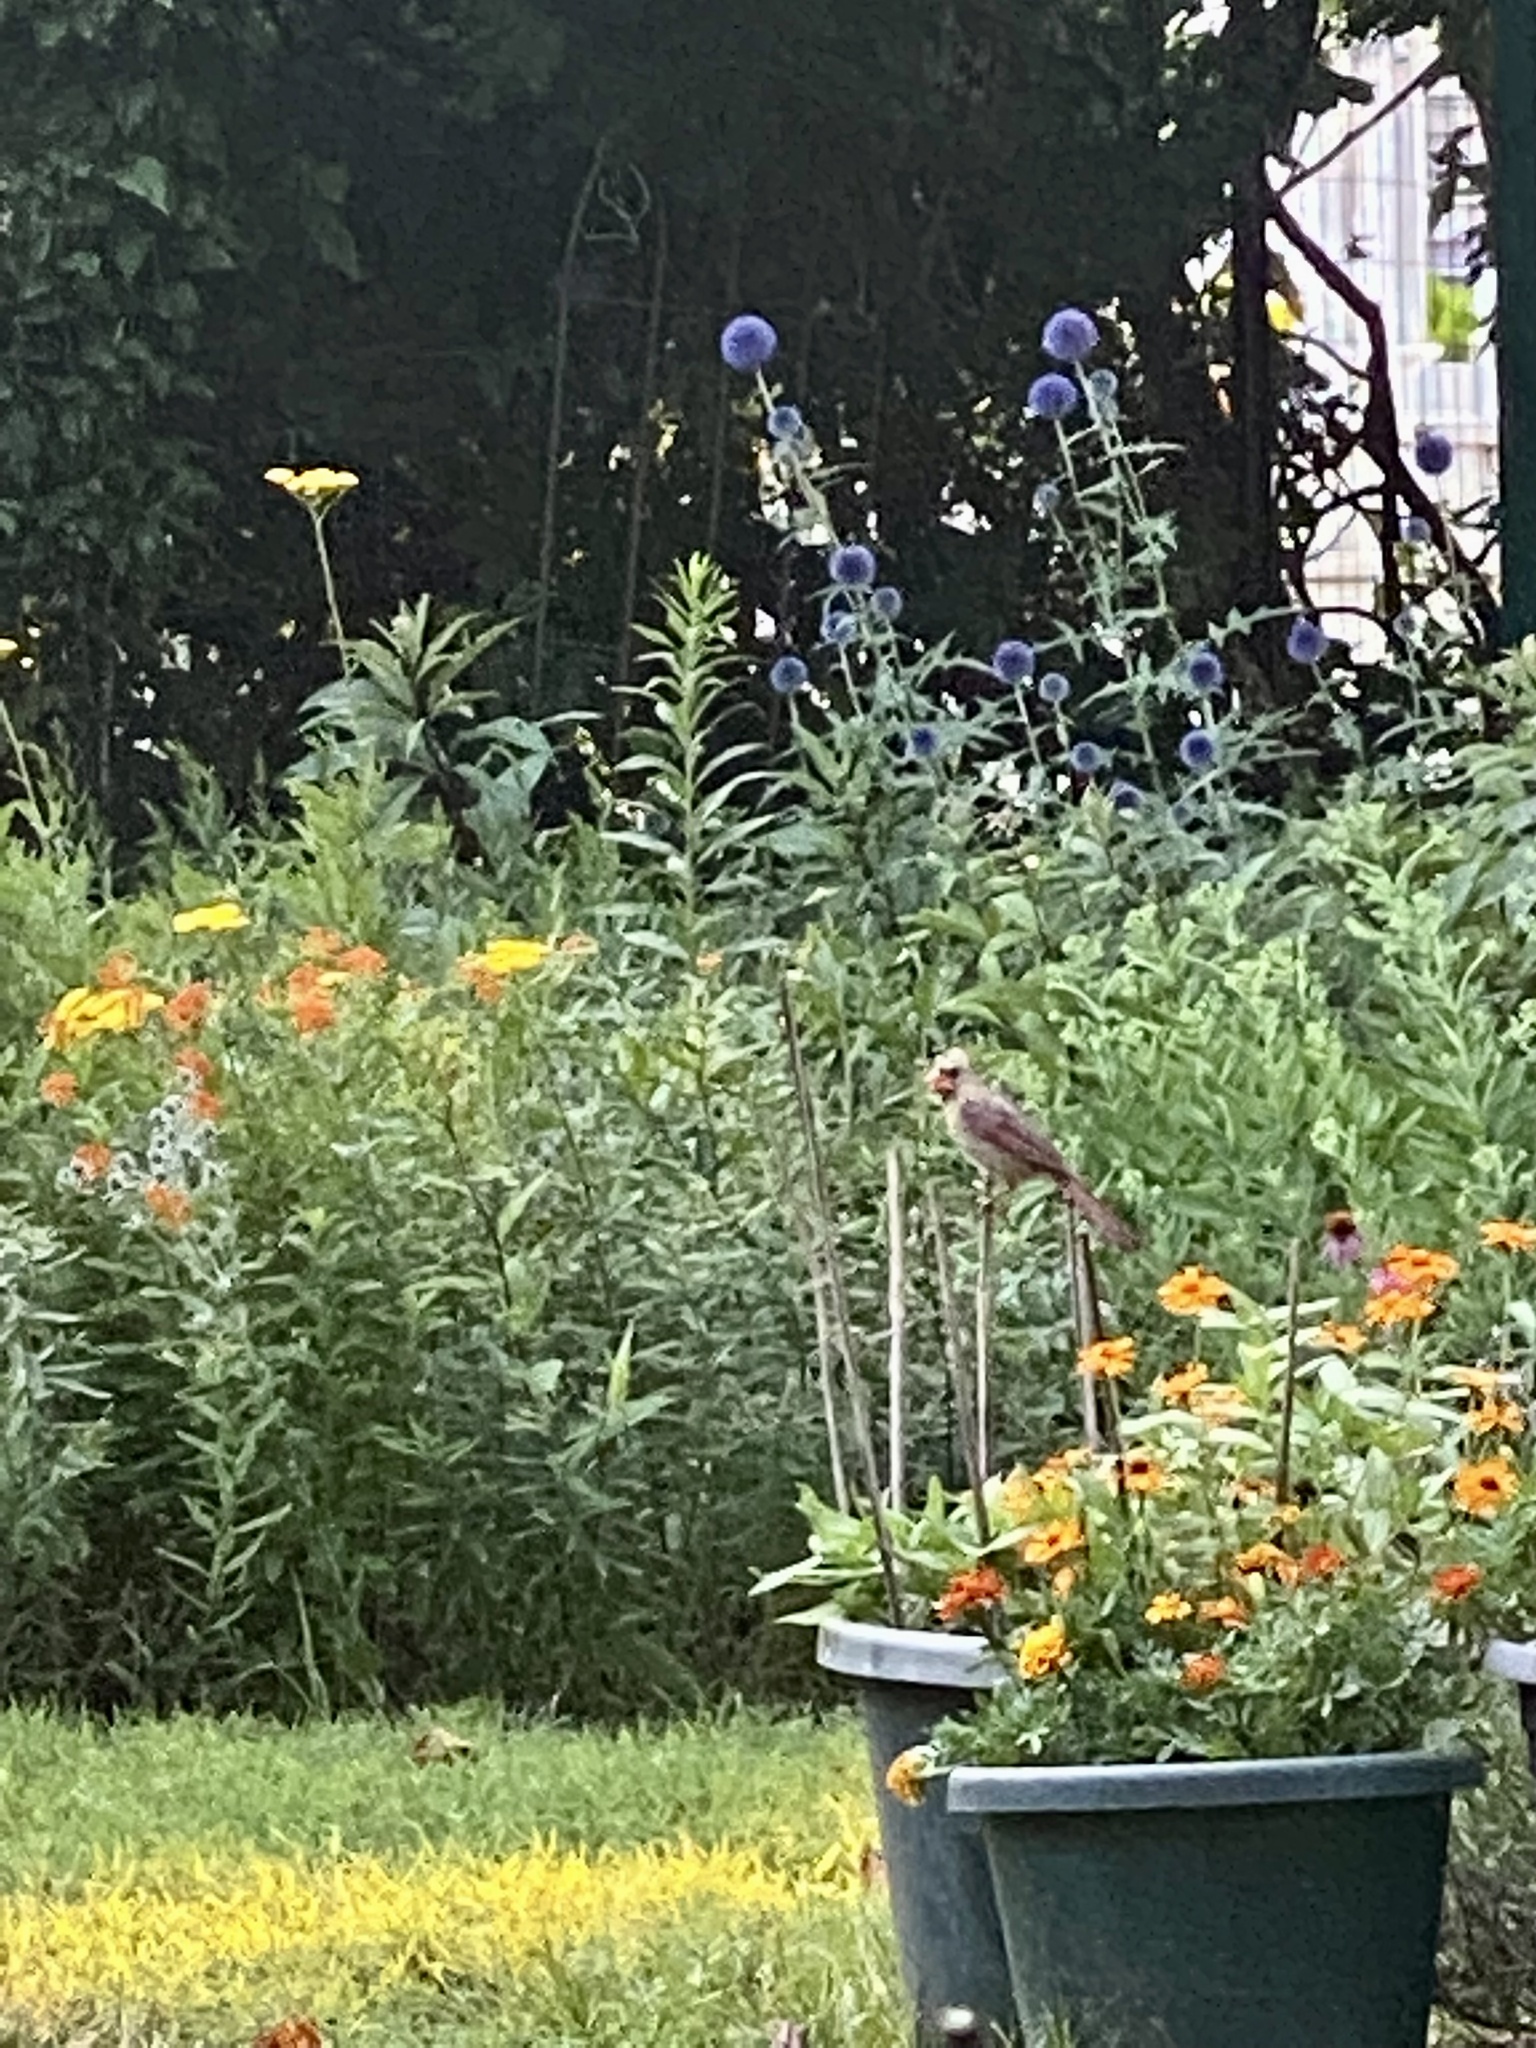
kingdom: Animalia
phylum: Chordata
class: Aves
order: Passeriformes
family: Cardinalidae
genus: Cardinalis
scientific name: Cardinalis cardinalis
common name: Northern cardinal
